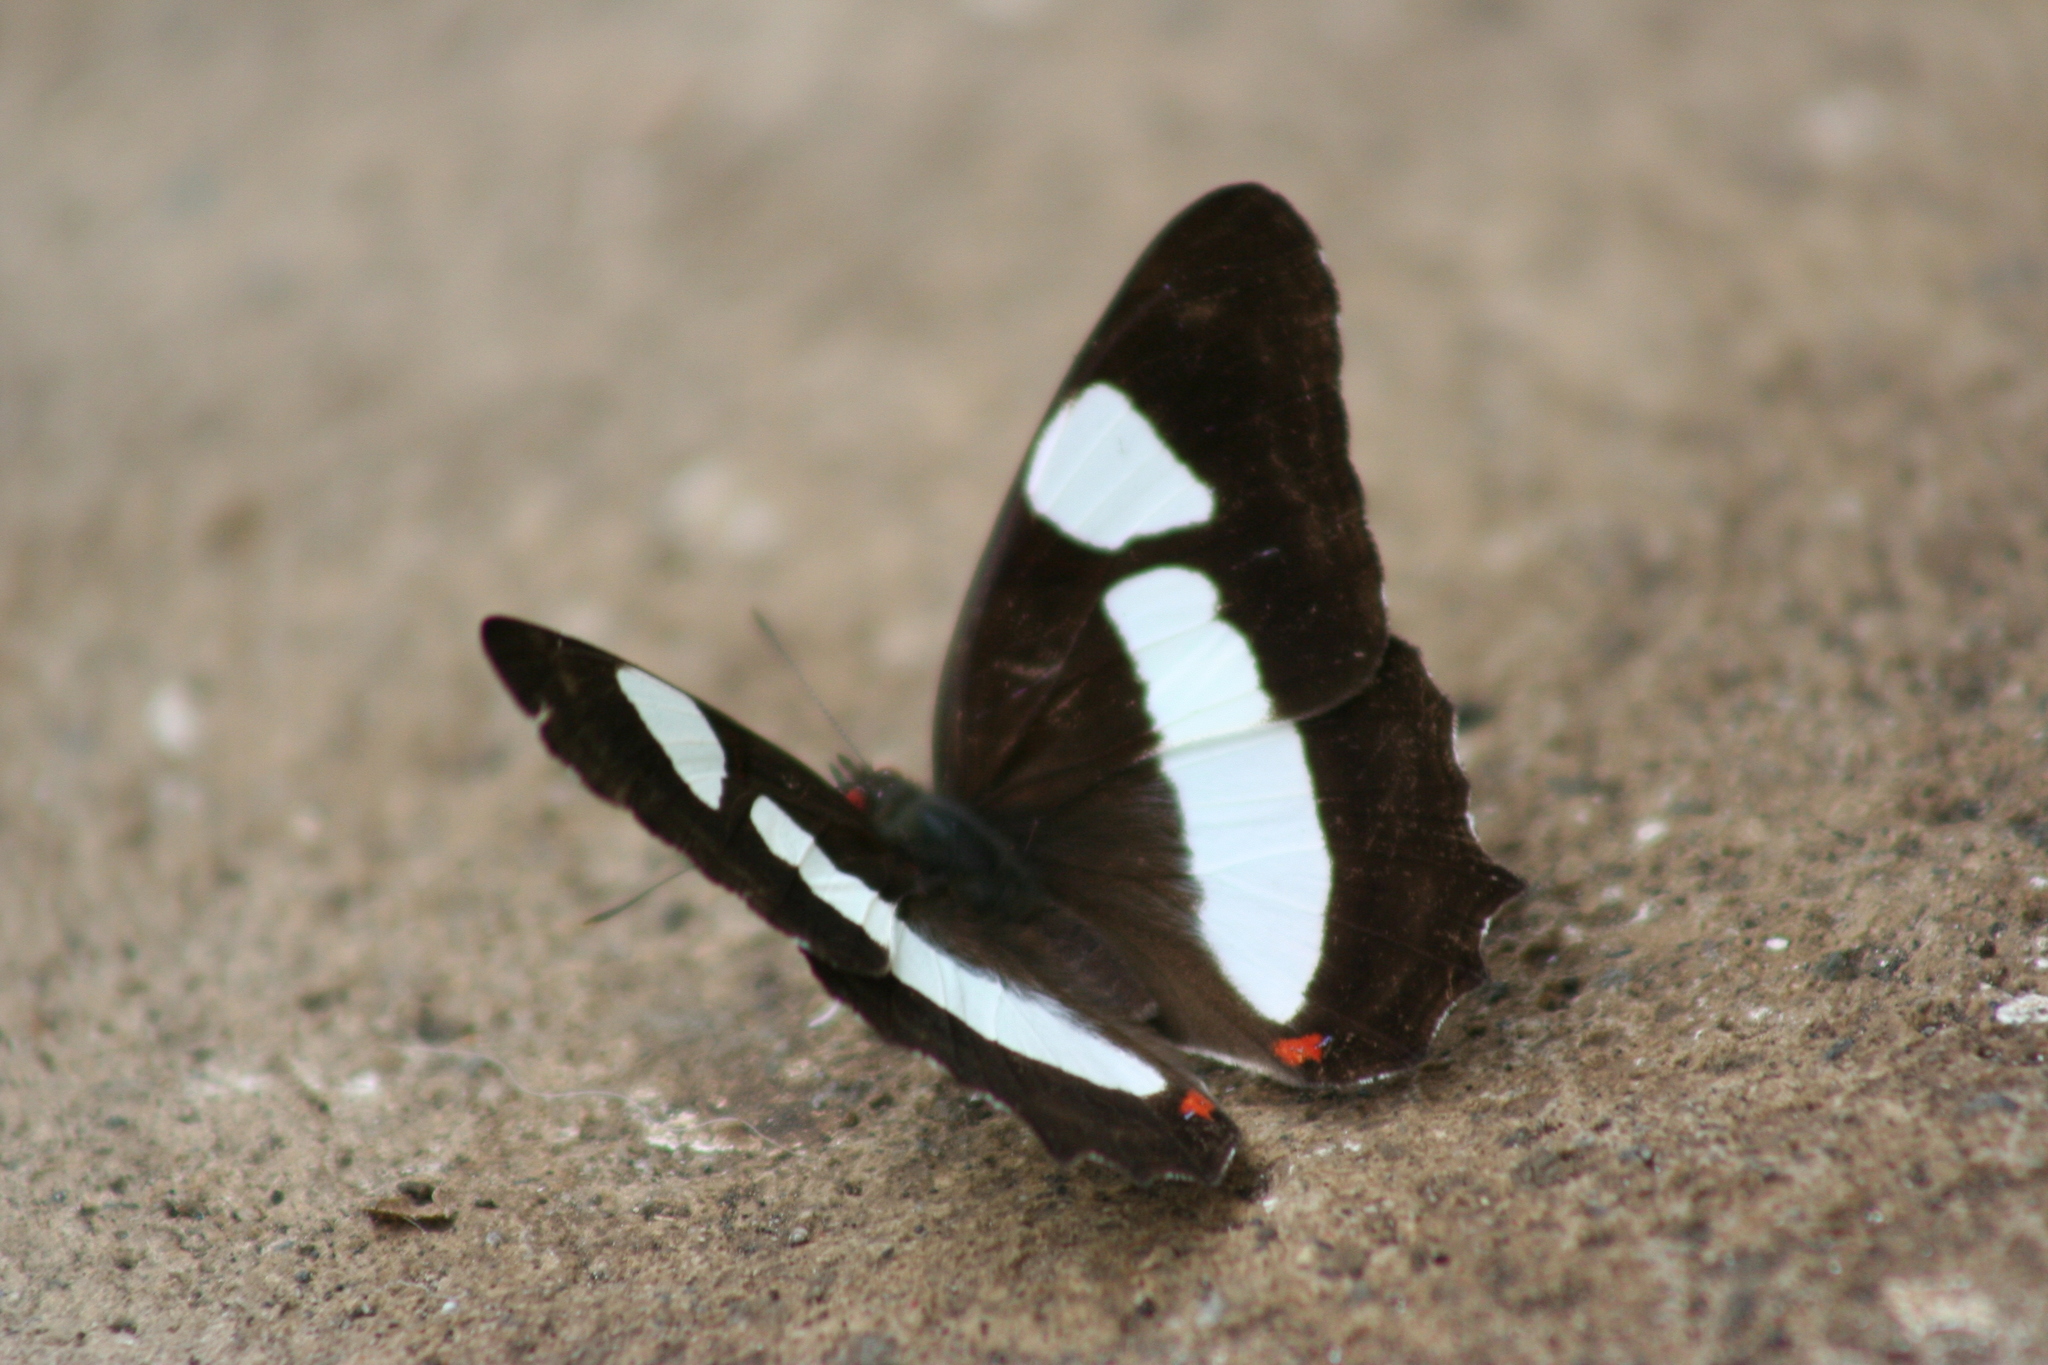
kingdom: Animalia
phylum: Arthropoda
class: Insecta
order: Lepidoptera
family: Nymphalidae
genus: Pyrrhogyra
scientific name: Pyrrhogyra neaerea
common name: Leading red-ring
